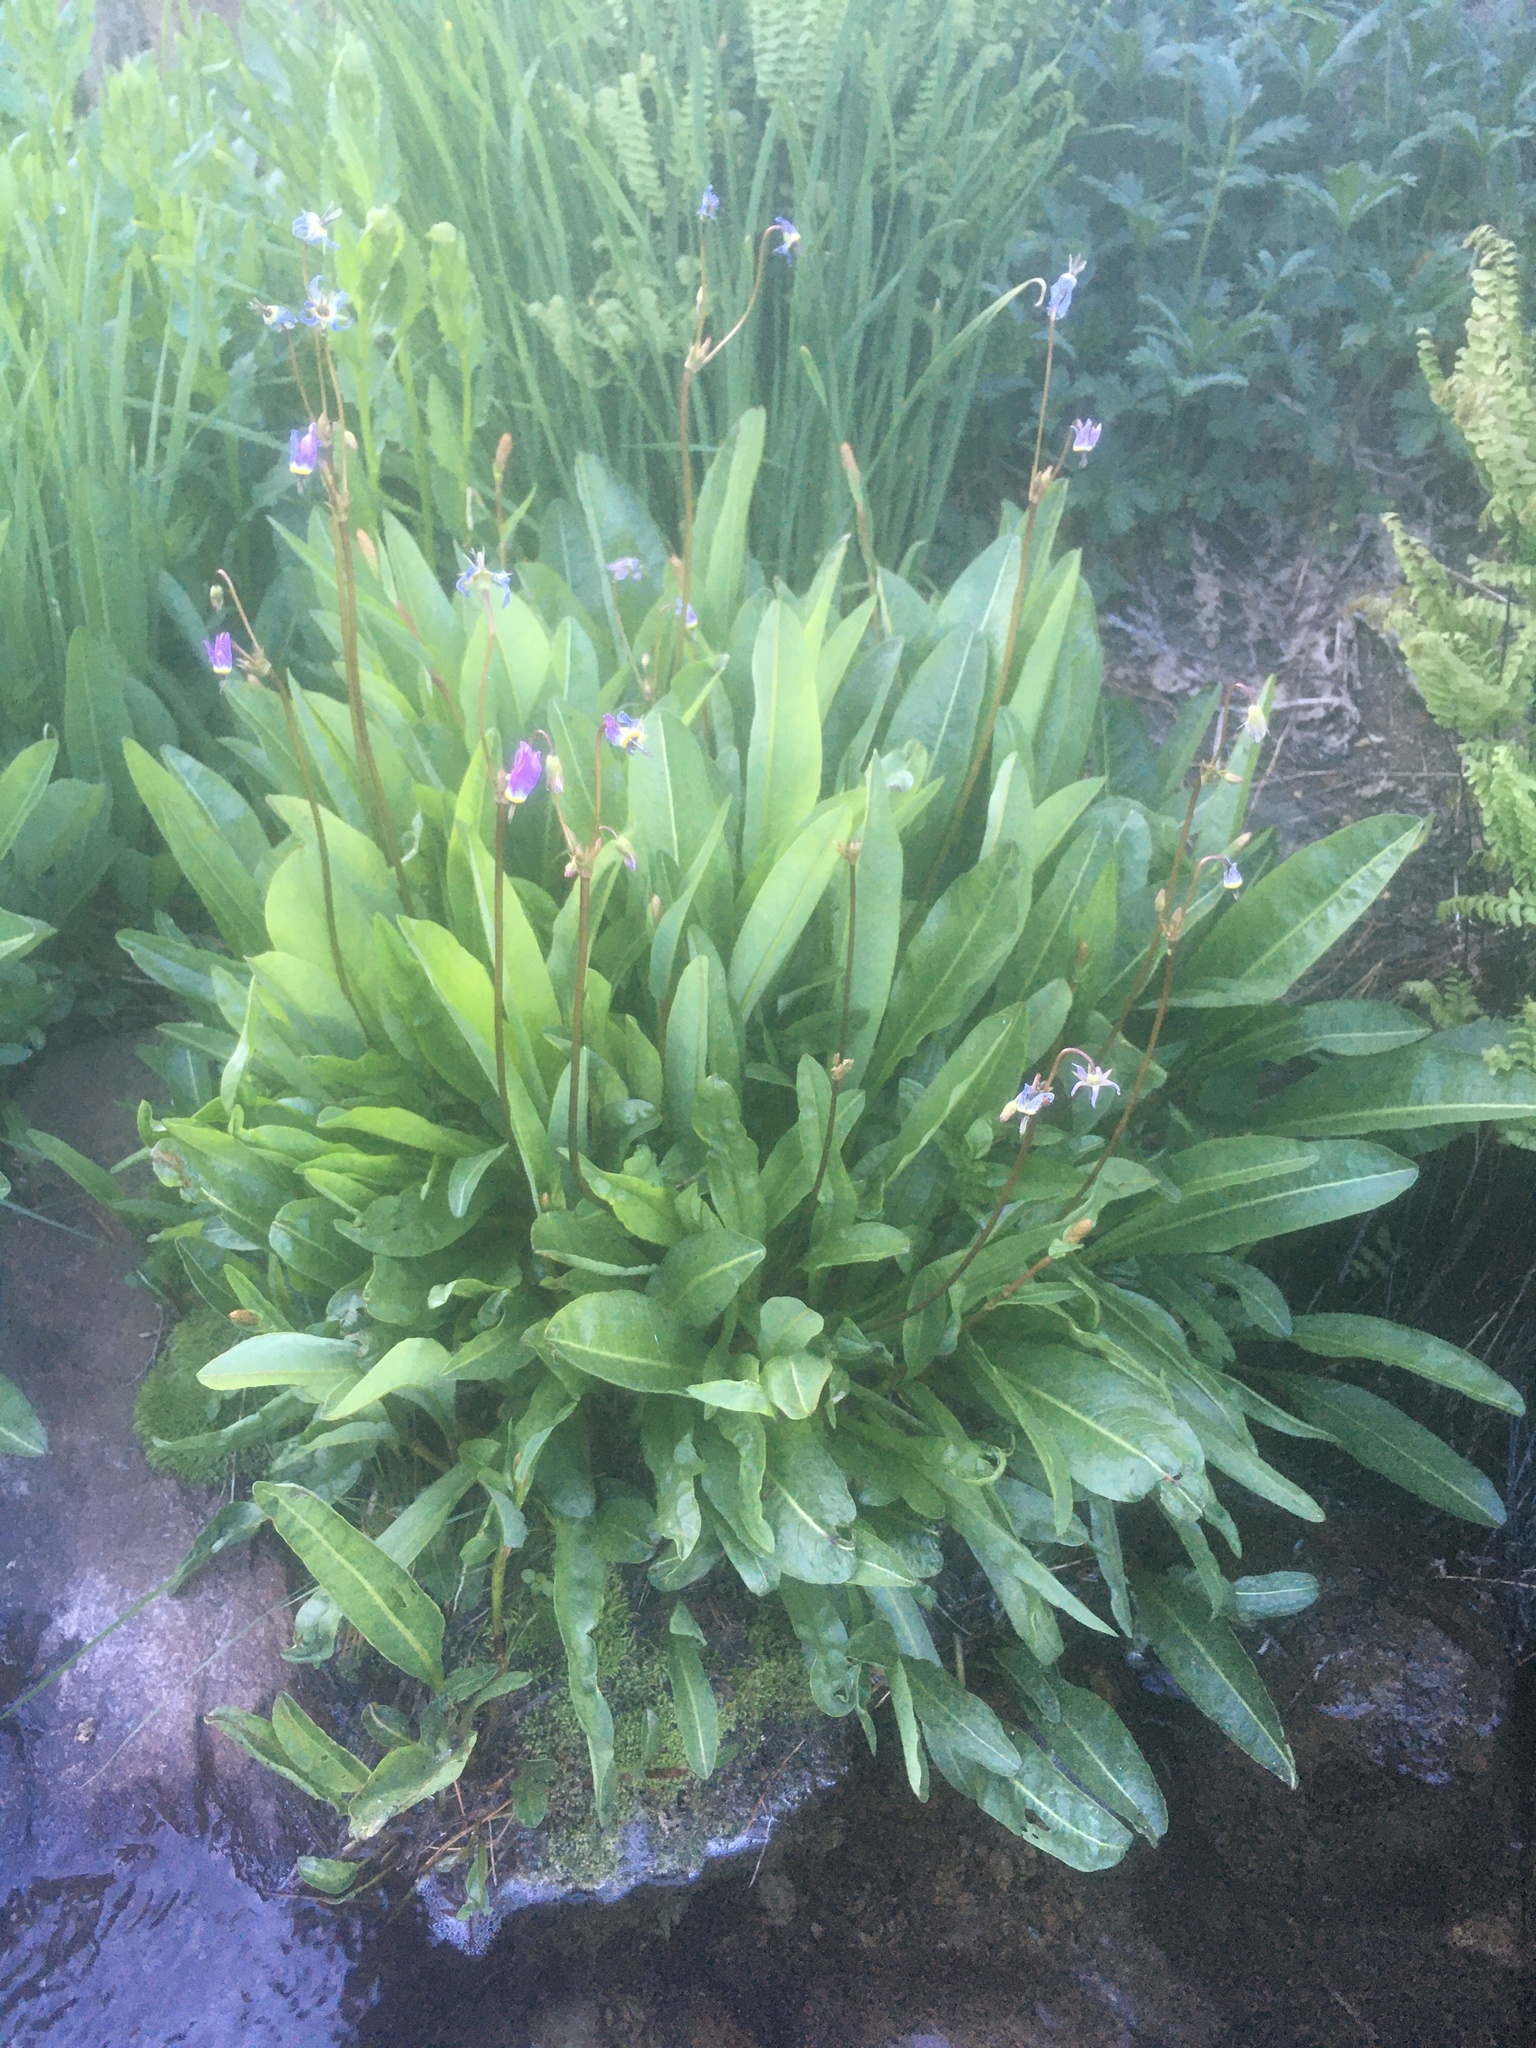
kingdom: Plantae
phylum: Tracheophyta
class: Magnoliopsida
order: Ericales
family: Primulaceae
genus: Dodecatheon
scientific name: Dodecatheon jeffreyanum
